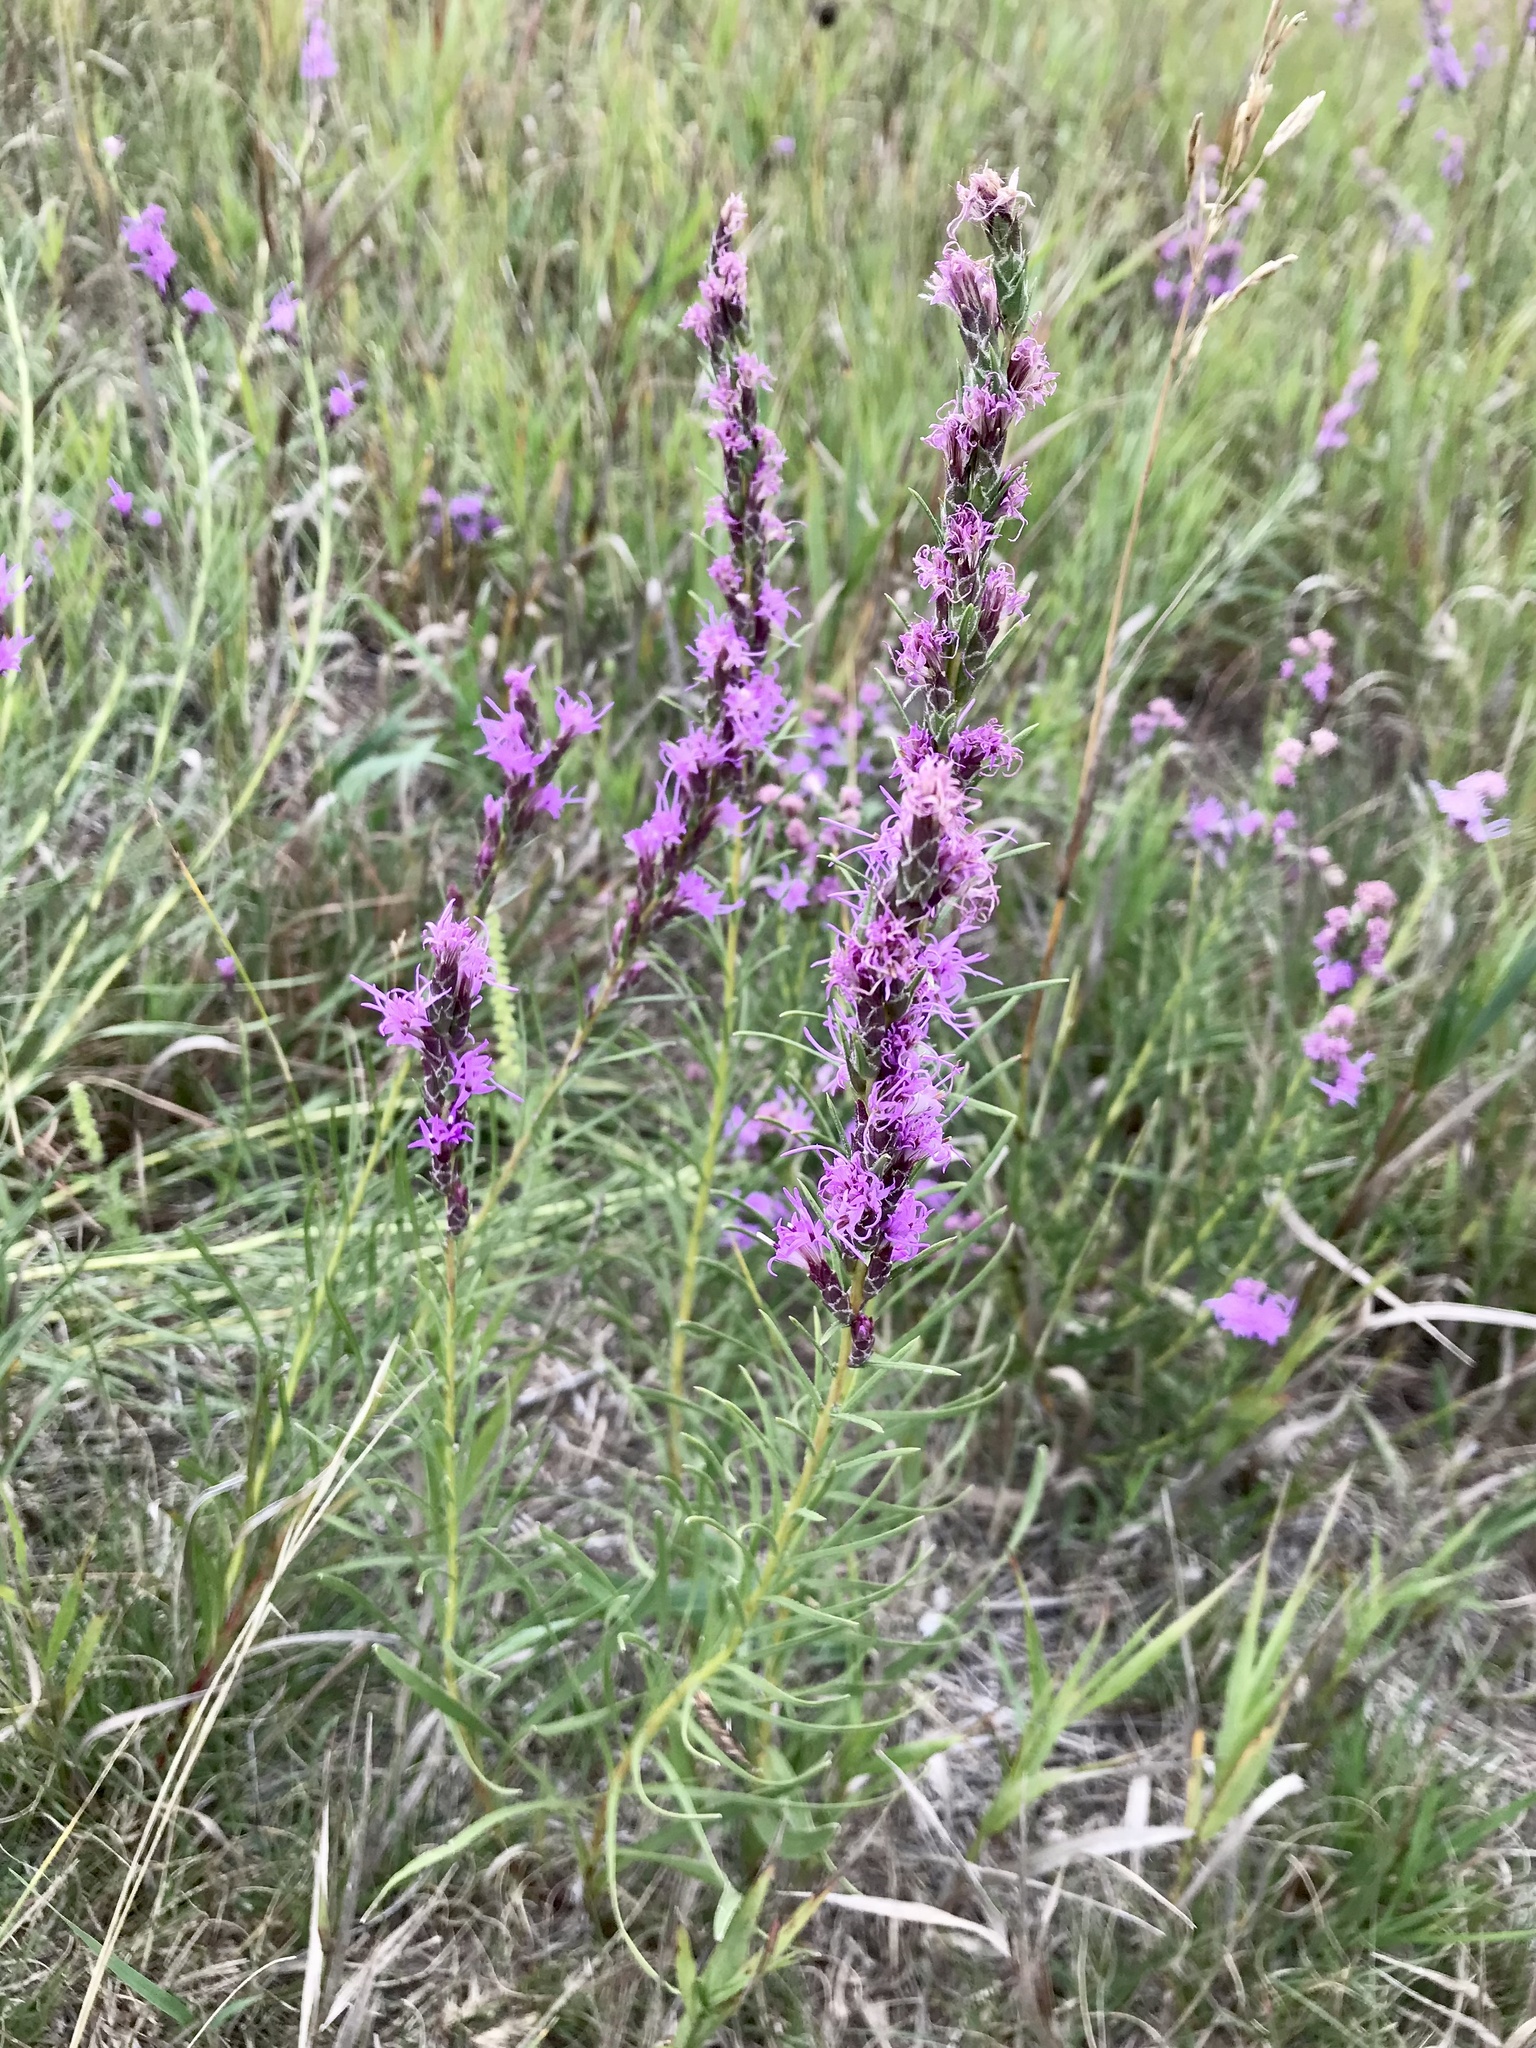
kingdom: Plantae
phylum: Tracheophyta
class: Magnoliopsida
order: Asterales
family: Asteraceae
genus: Liatris
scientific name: Liatris punctata
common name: Dotted gayfeather
